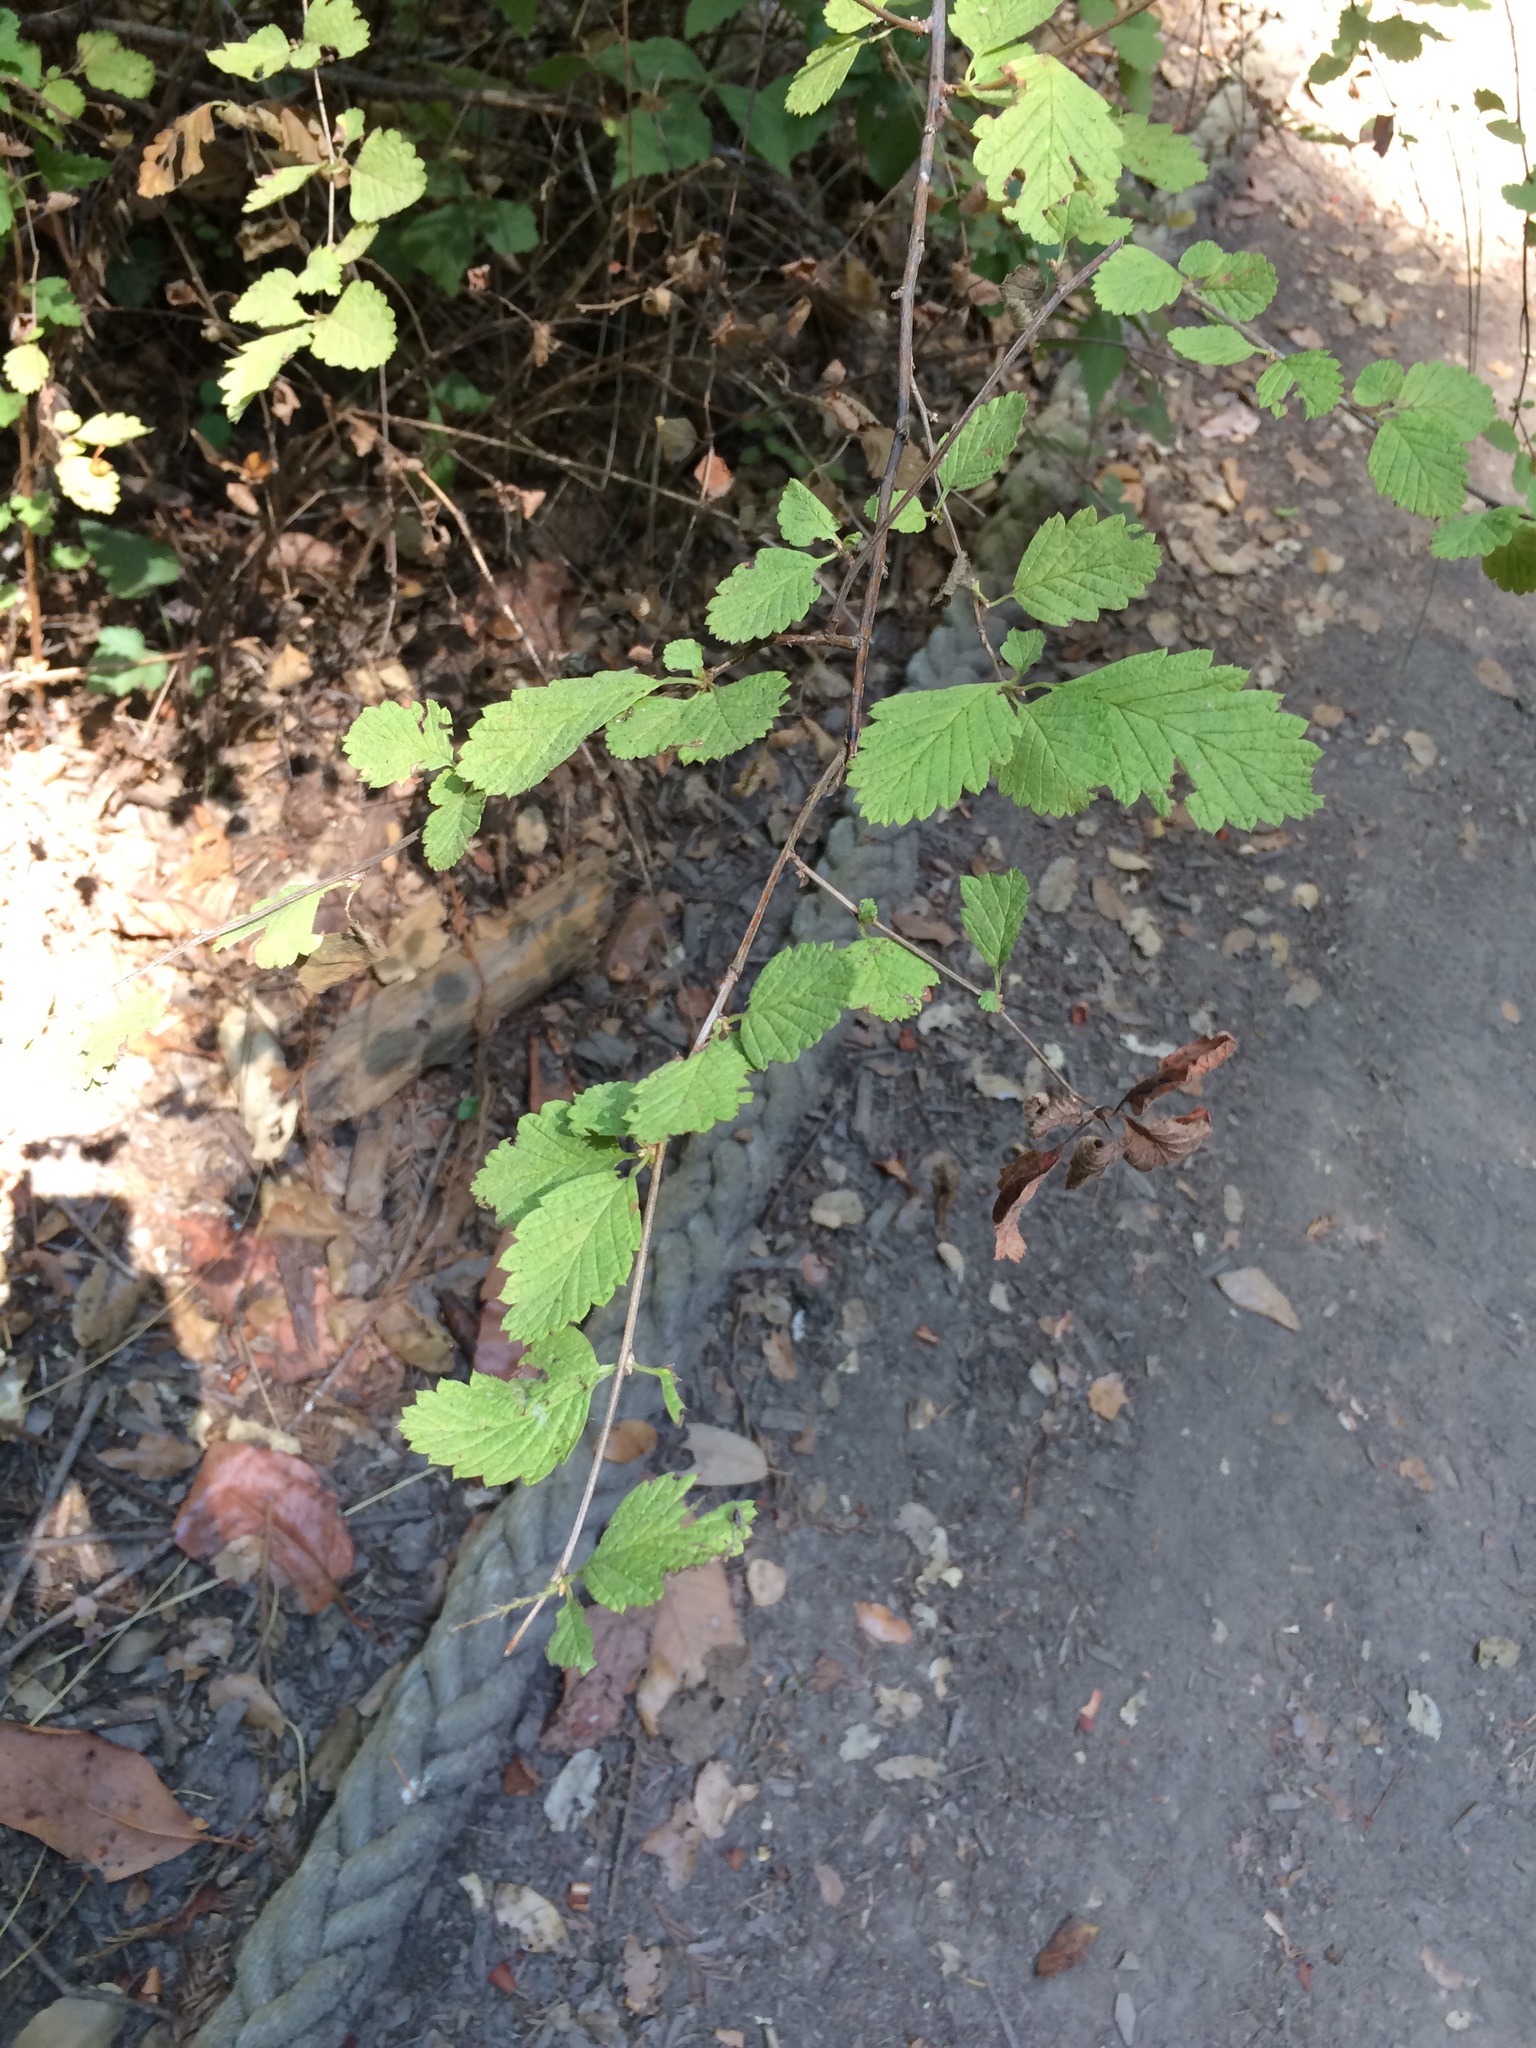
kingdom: Plantae
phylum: Tracheophyta
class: Magnoliopsida
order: Rosales
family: Rosaceae
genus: Holodiscus
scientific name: Holodiscus discolor
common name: Oceanspray
